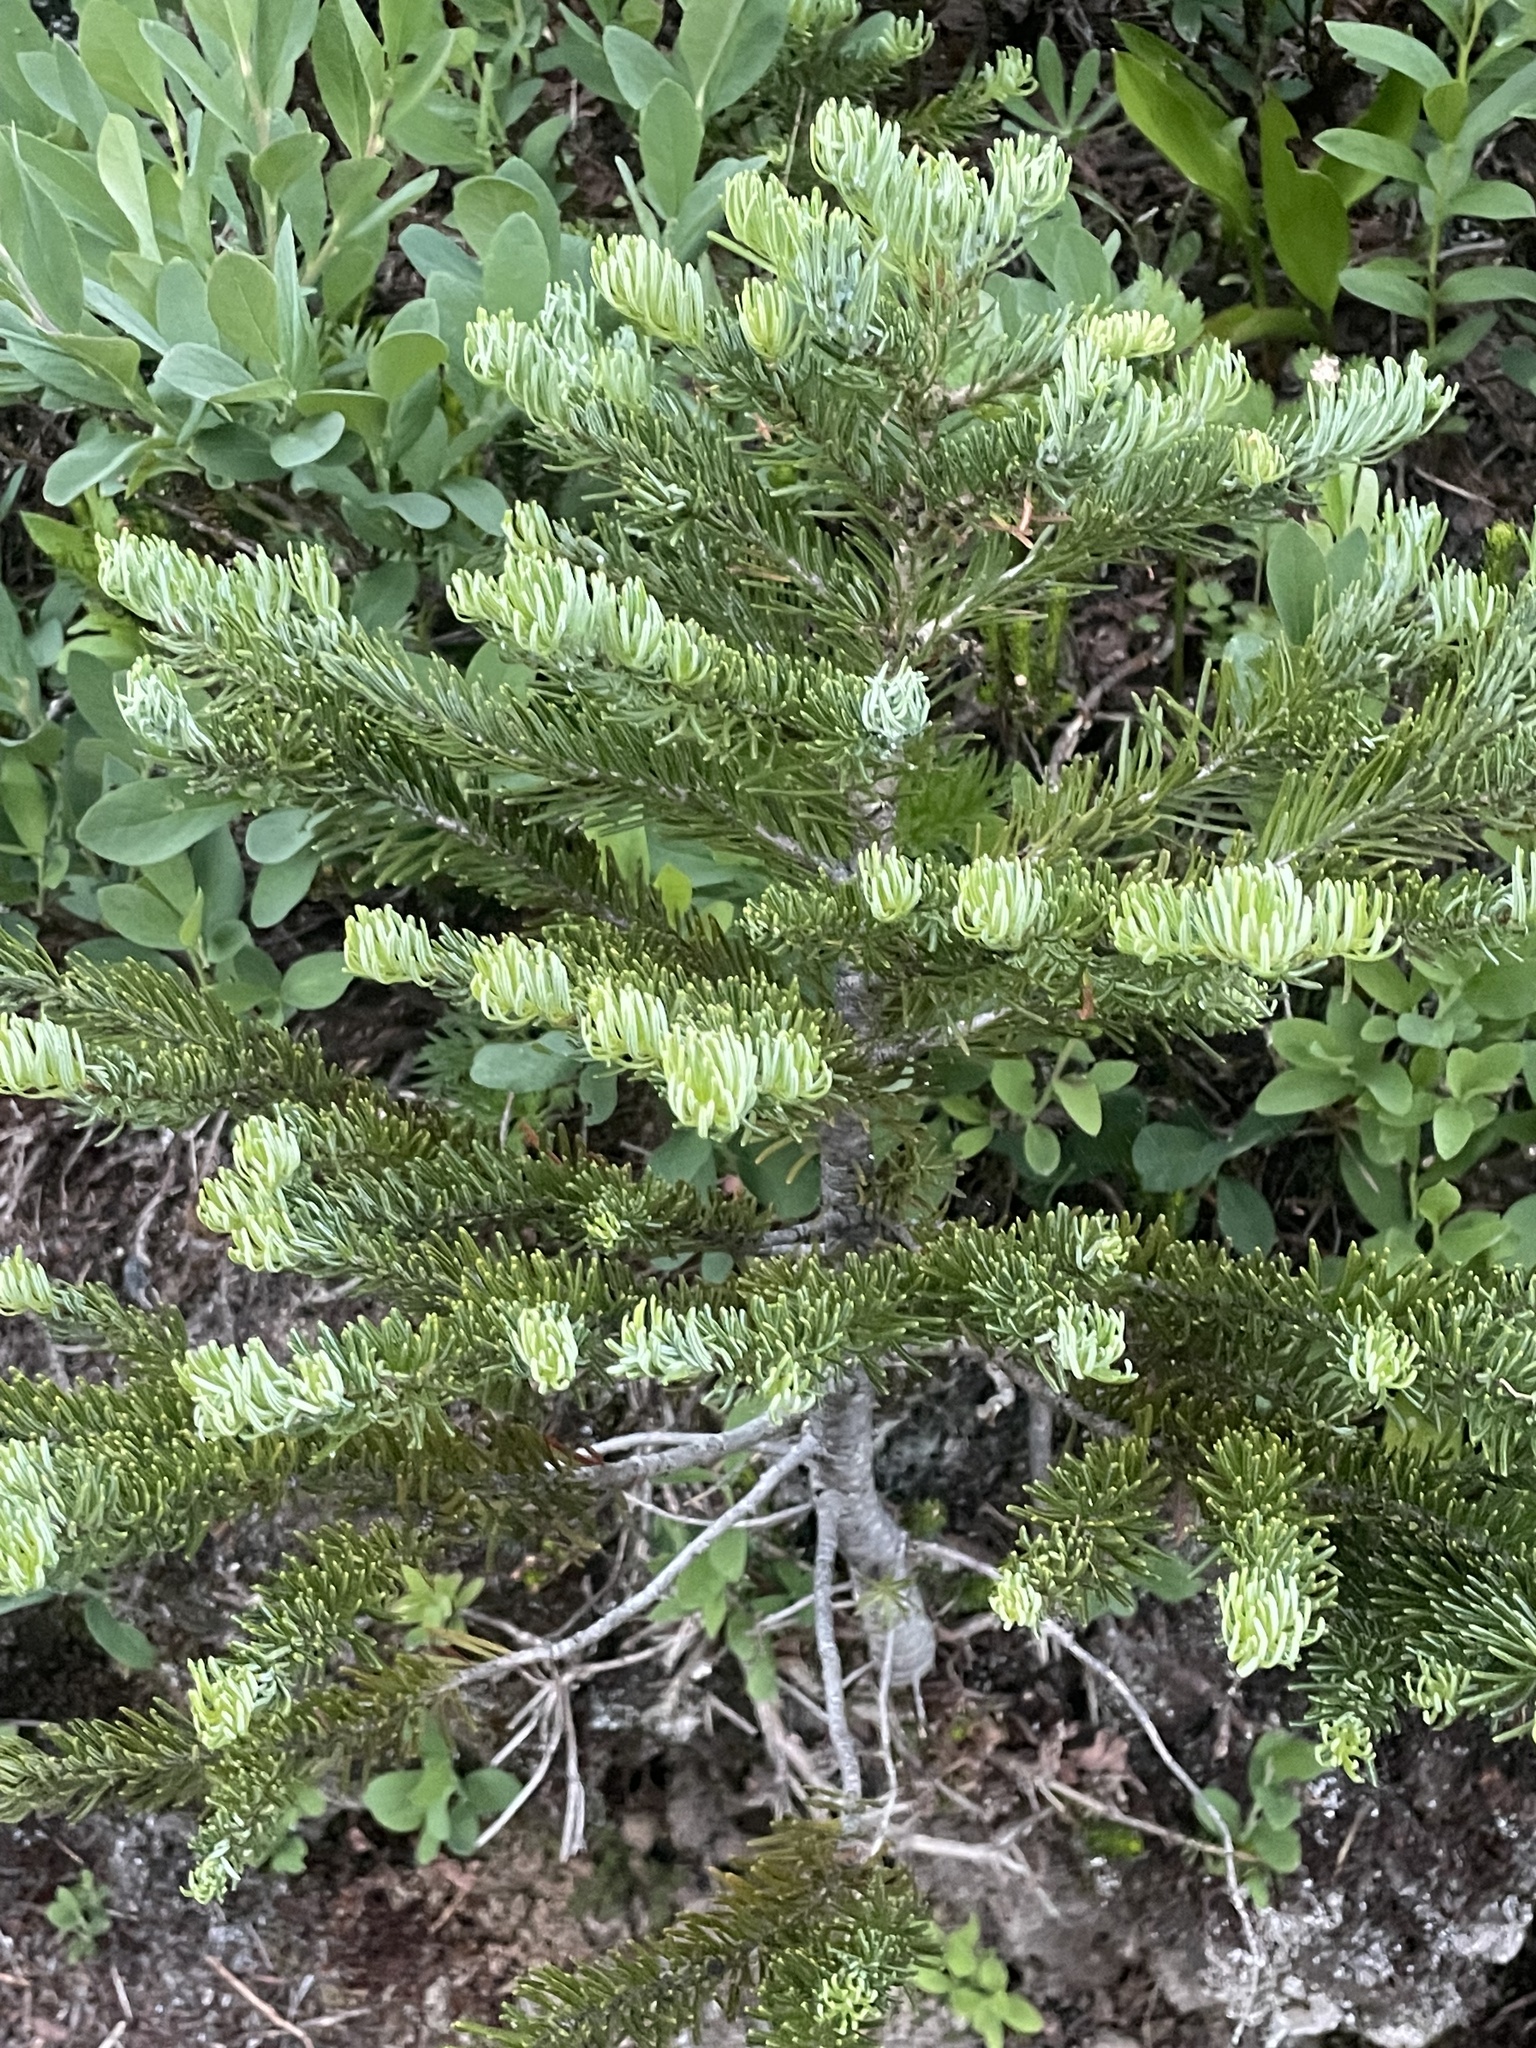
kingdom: Plantae
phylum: Tracheophyta
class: Pinopsida
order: Pinales
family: Pinaceae
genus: Abies
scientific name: Abies lasiocarpa
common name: Subalpine fir
